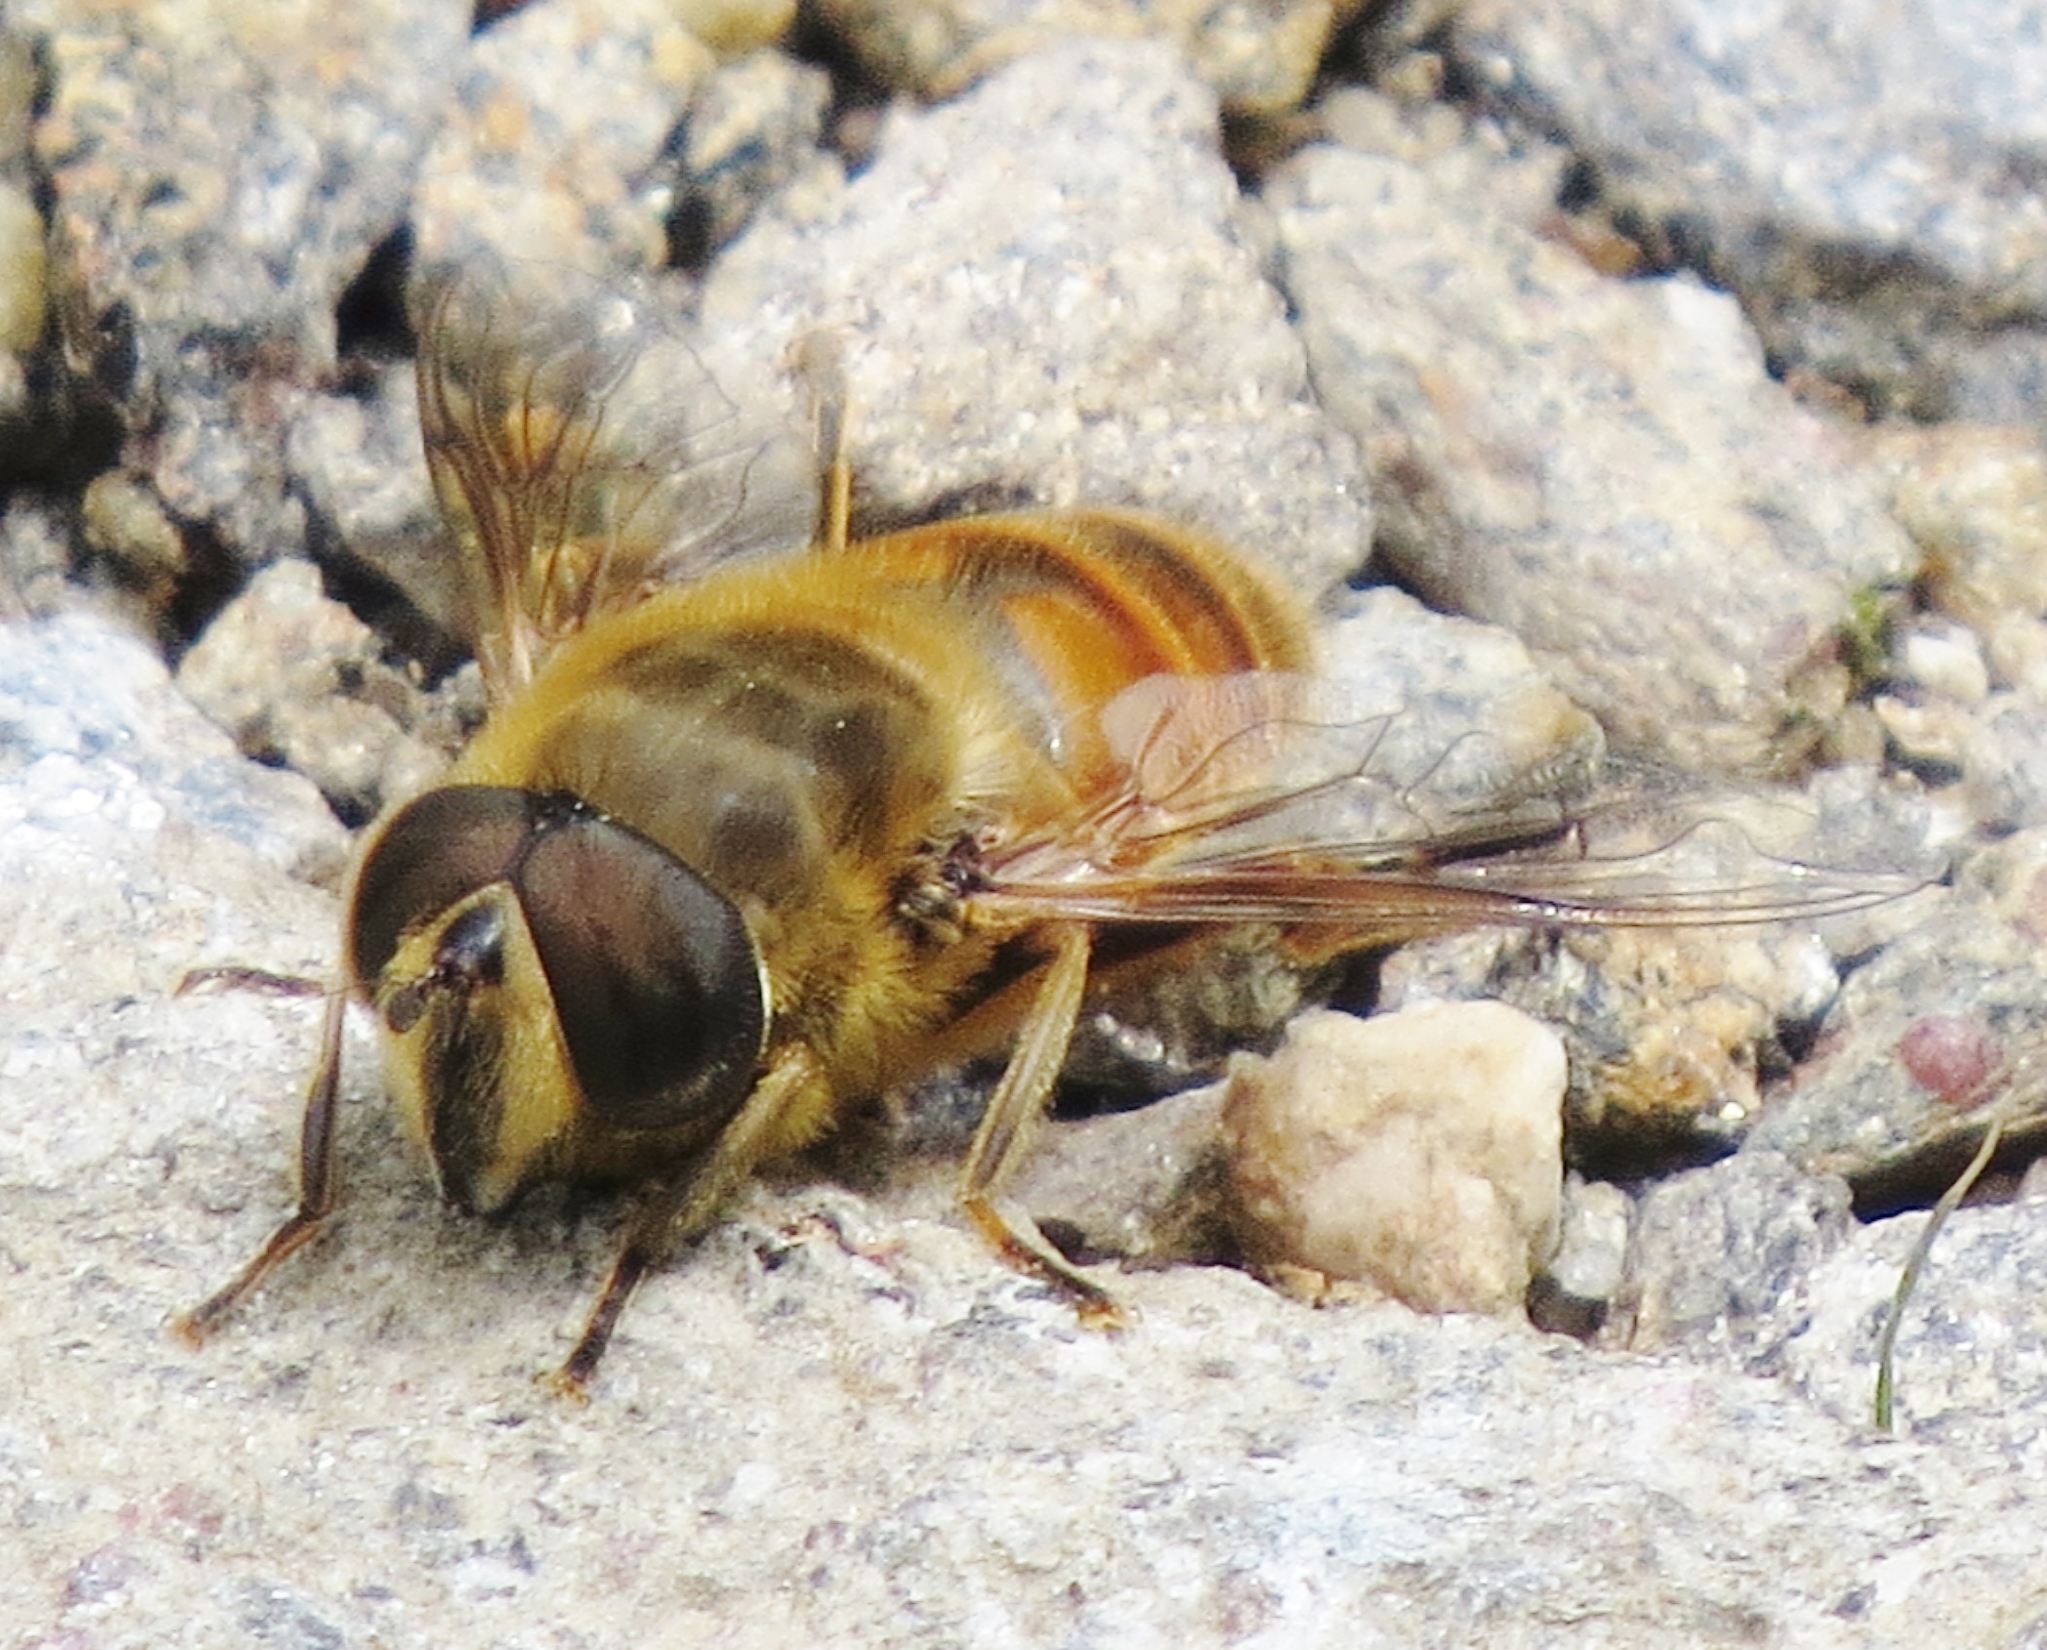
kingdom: Animalia
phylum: Arthropoda
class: Insecta
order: Diptera
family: Syrphidae
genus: Eristalis
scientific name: Eristalis tenax
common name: Drone fly
